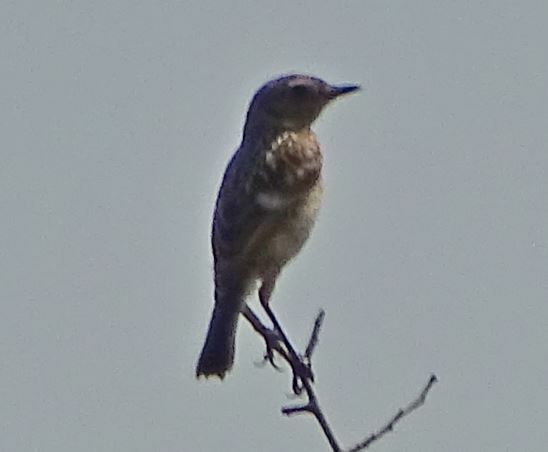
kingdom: Animalia
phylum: Chordata
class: Aves
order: Passeriformes
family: Muscicapidae
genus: Saxicola
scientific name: Saxicola rubicola
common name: European stonechat
